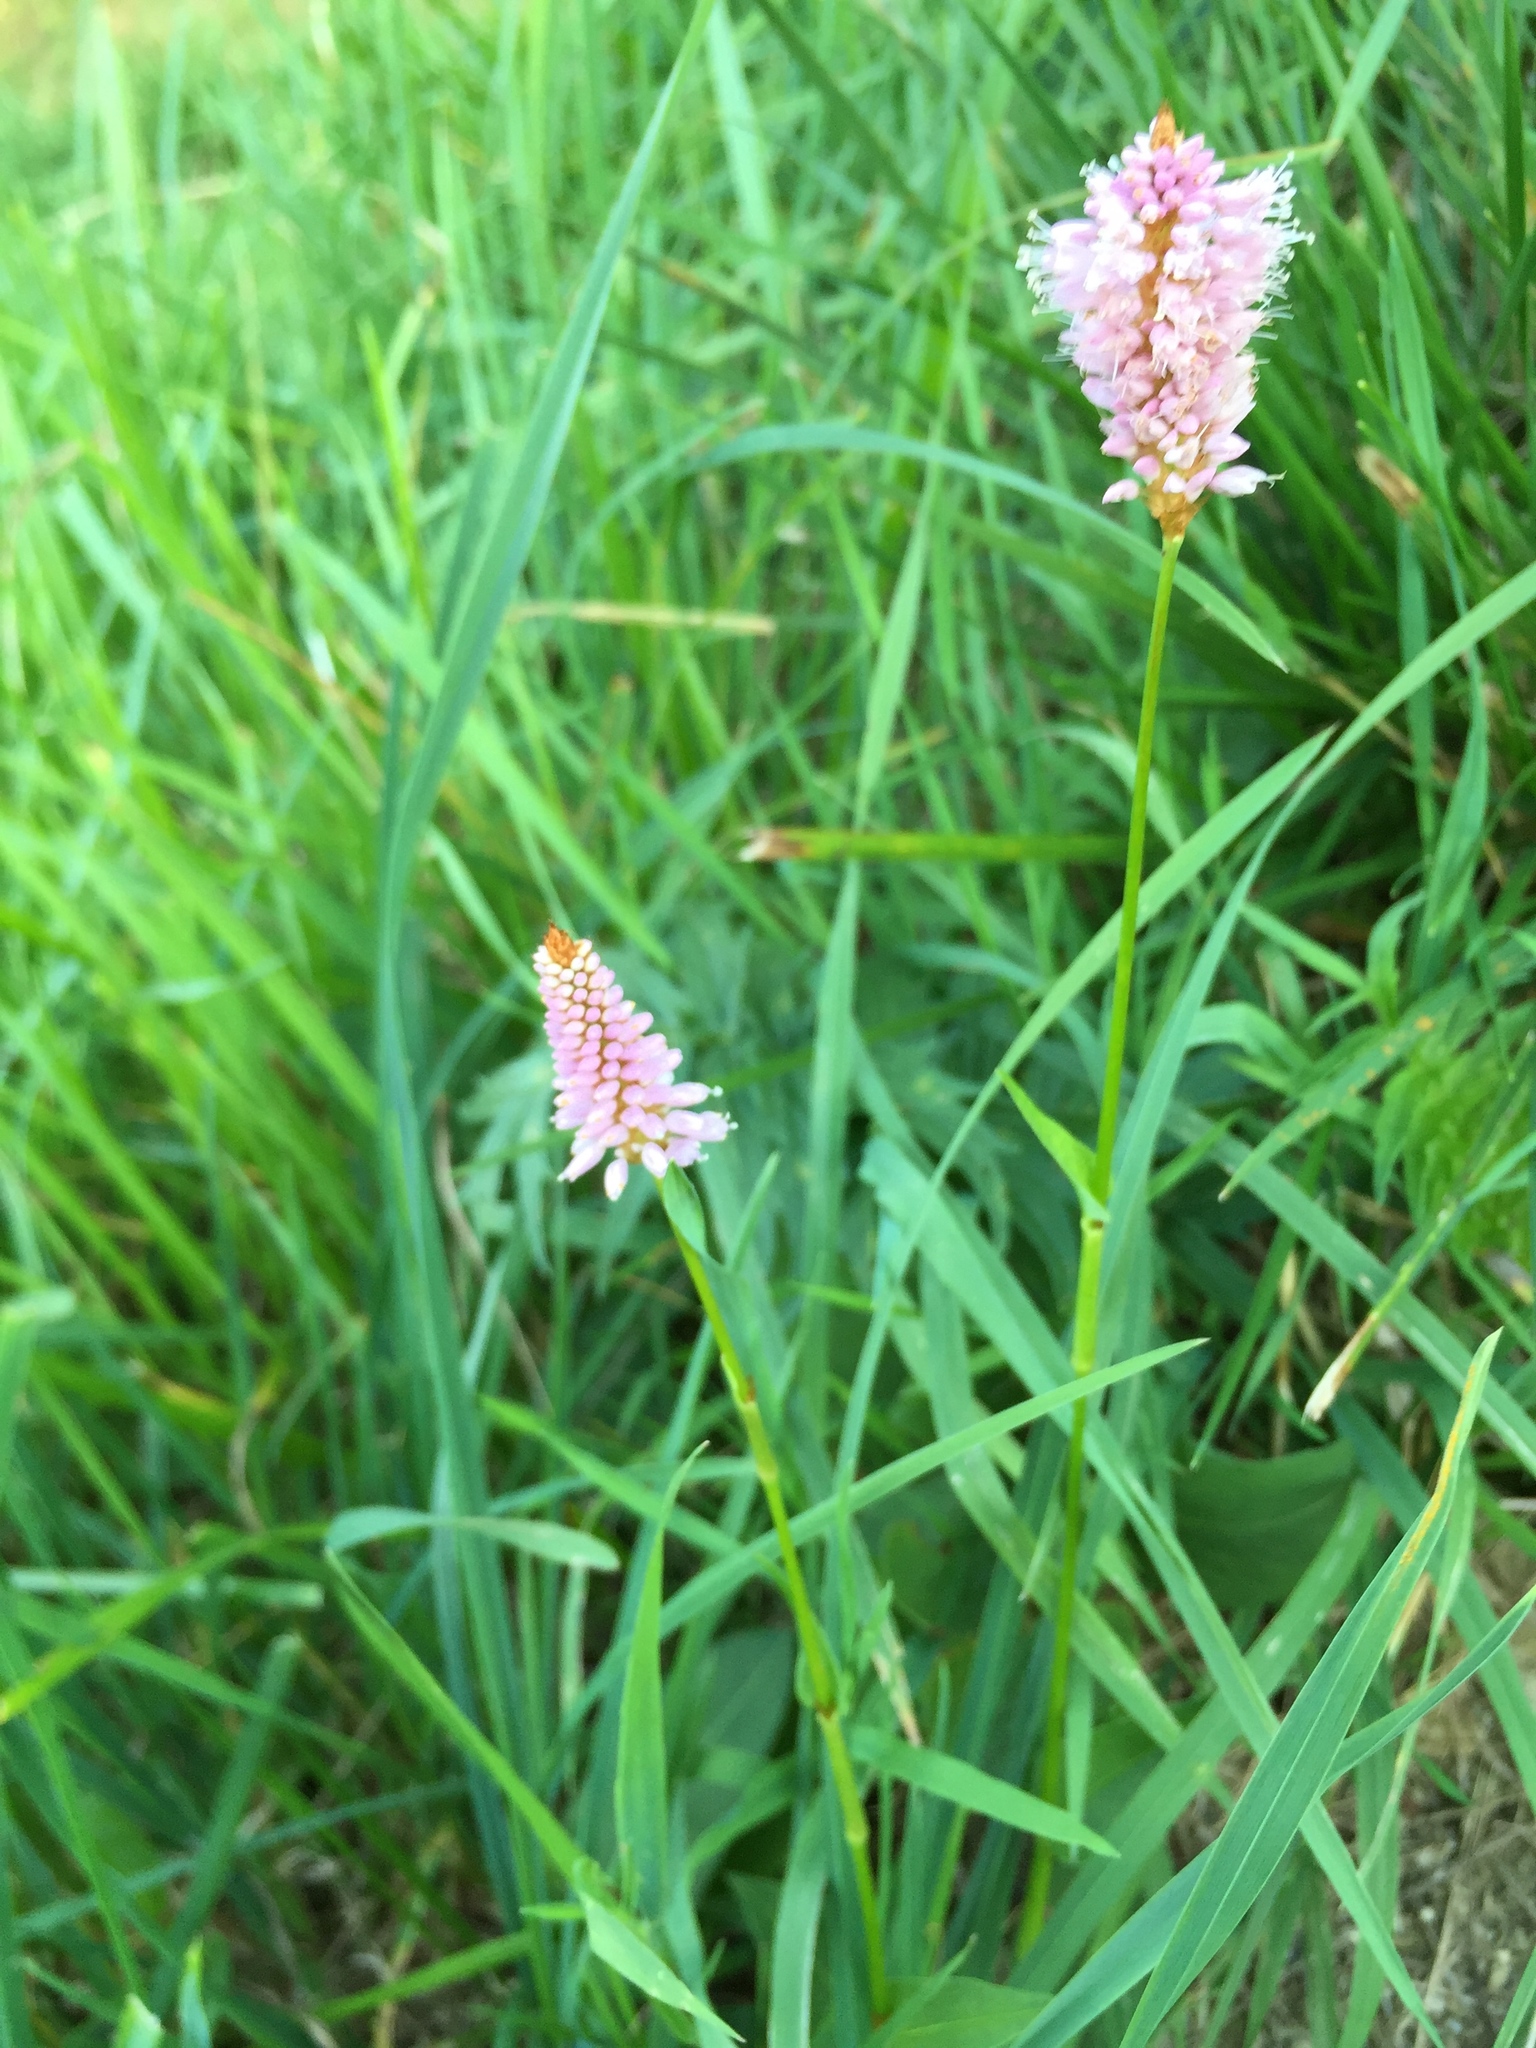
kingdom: Plantae
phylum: Tracheophyta
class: Magnoliopsida
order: Caryophyllales
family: Polygonaceae
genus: Bistorta
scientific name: Bistorta officinalis
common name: Common bistort
